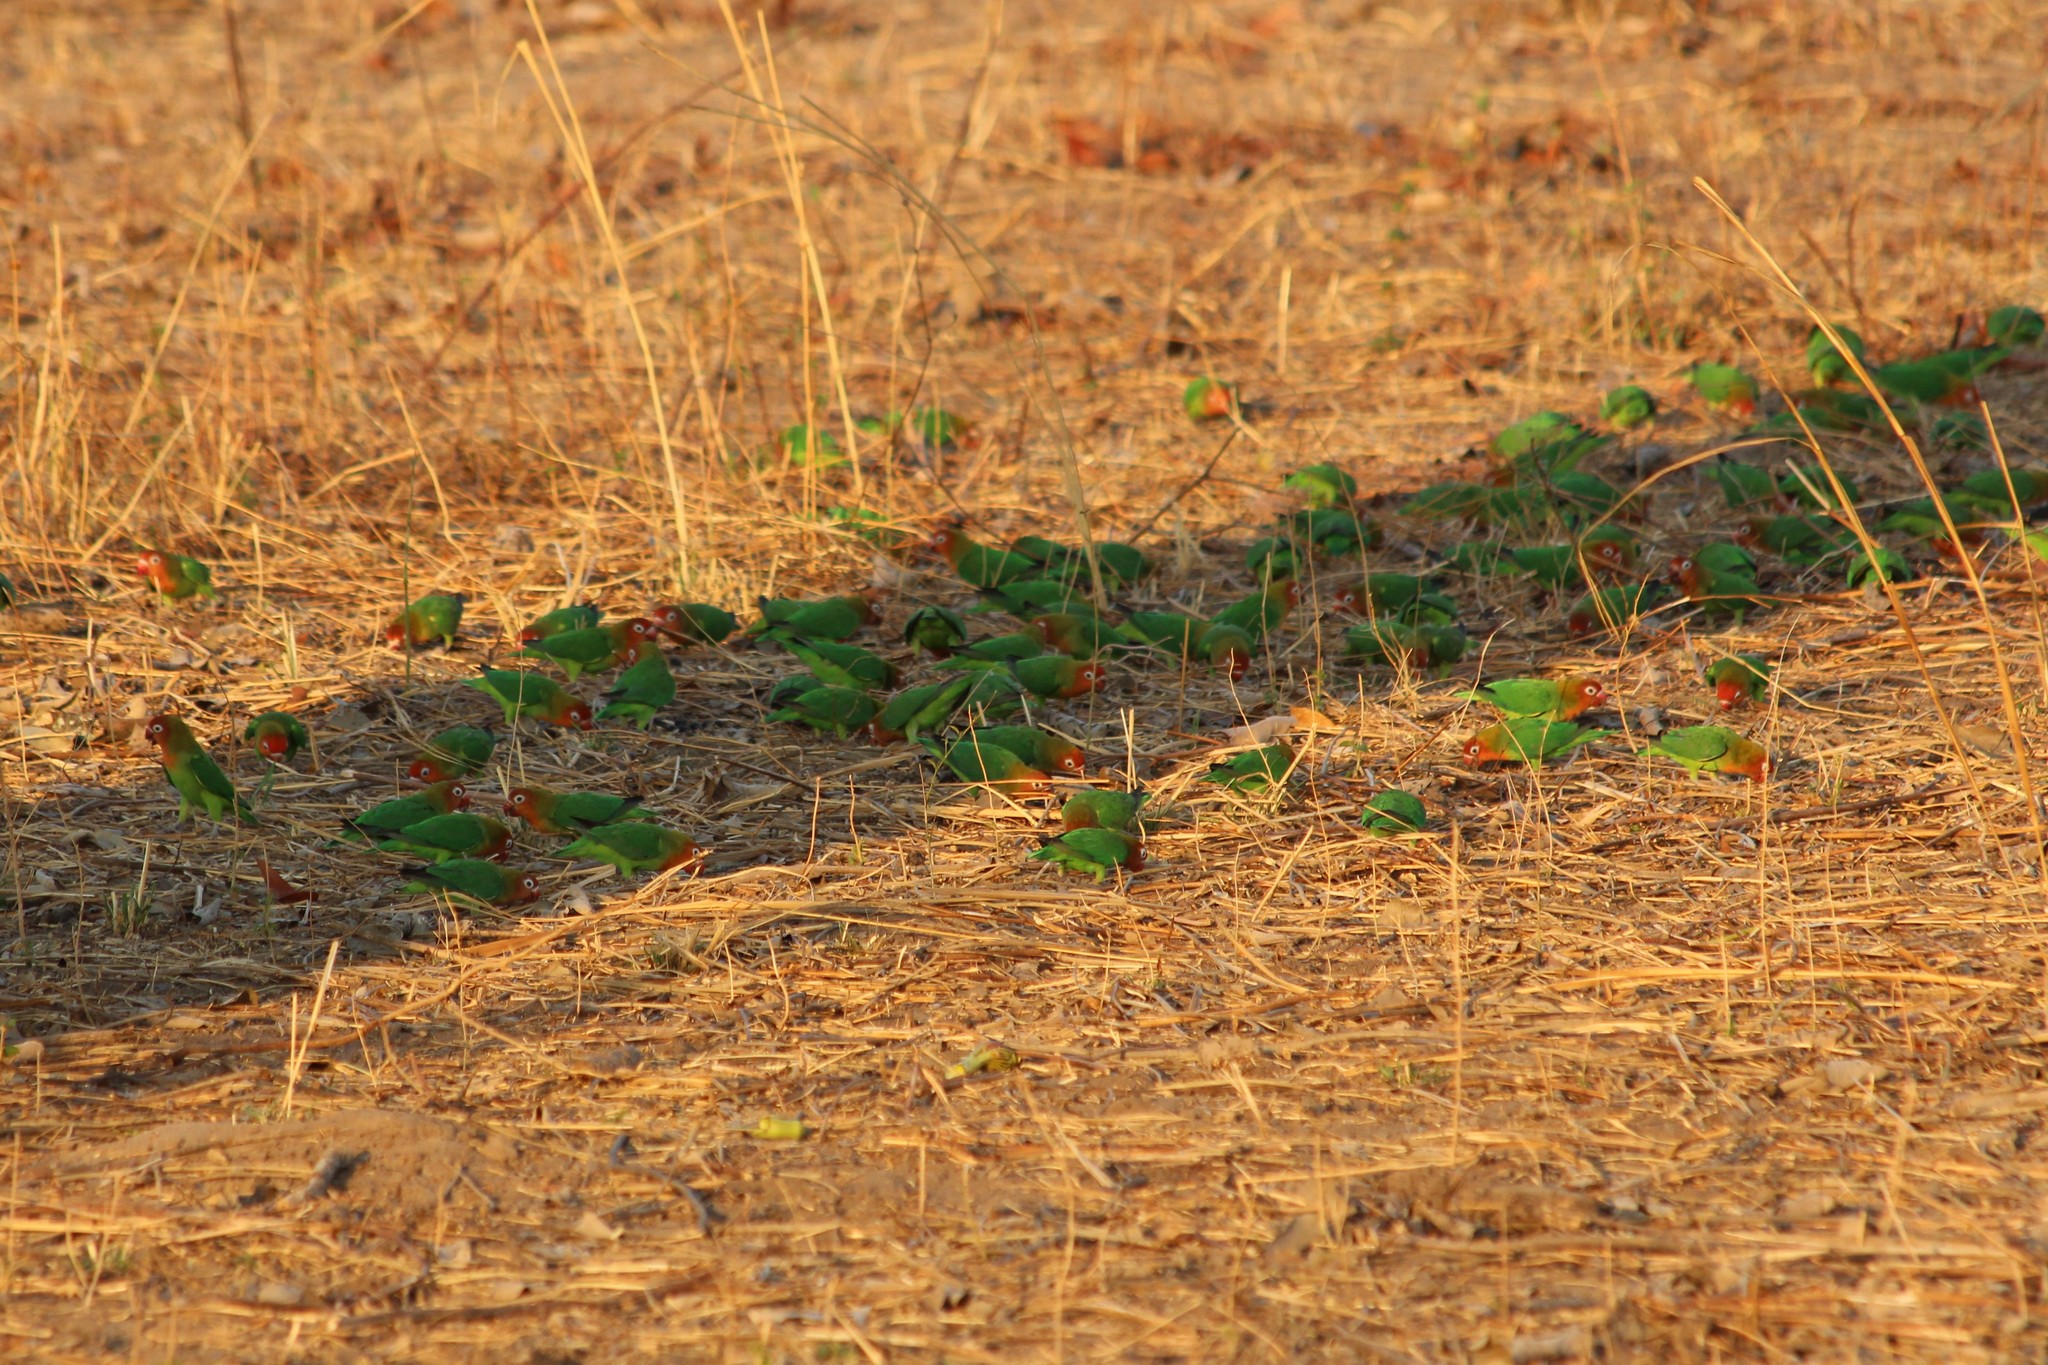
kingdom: Animalia
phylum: Chordata
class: Aves
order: Psittaciformes
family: Psittacidae
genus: Agapornis
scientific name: Agapornis lilianae
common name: Lilian's lovebird
